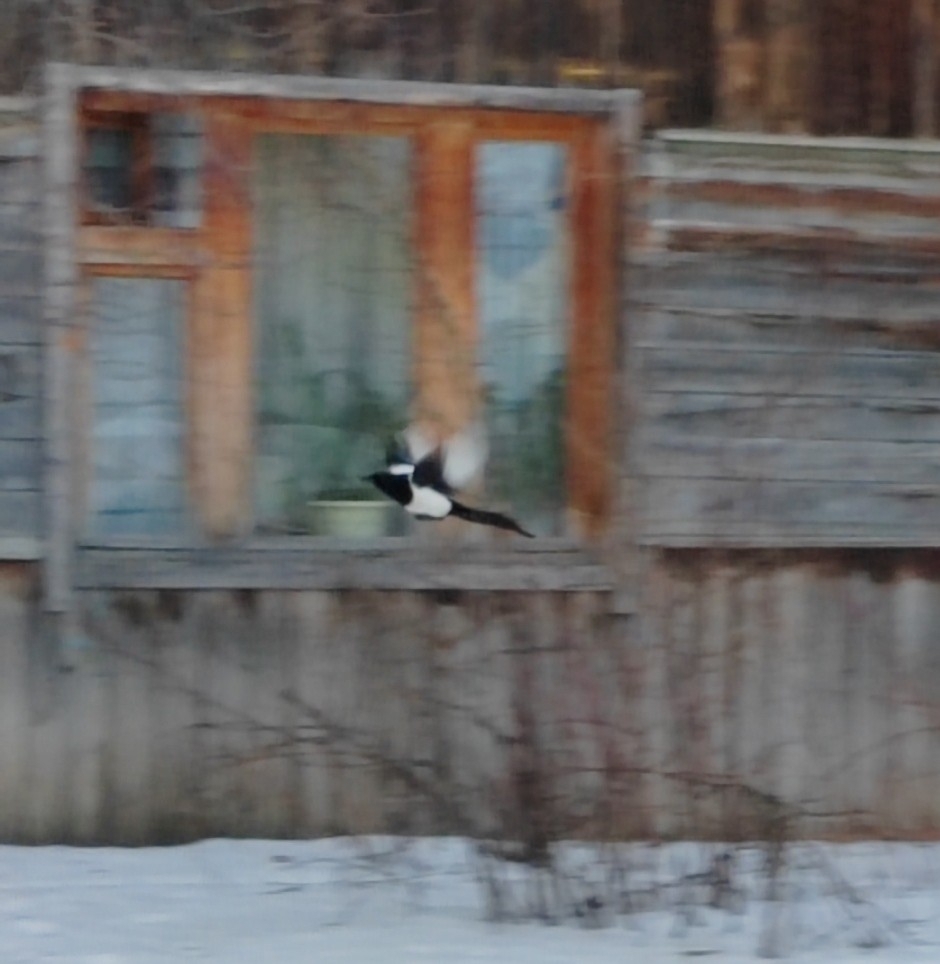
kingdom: Animalia
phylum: Chordata
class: Aves
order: Passeriformes
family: Corvidae
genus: Pica
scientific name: Pica pica
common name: Eurasian magpie
